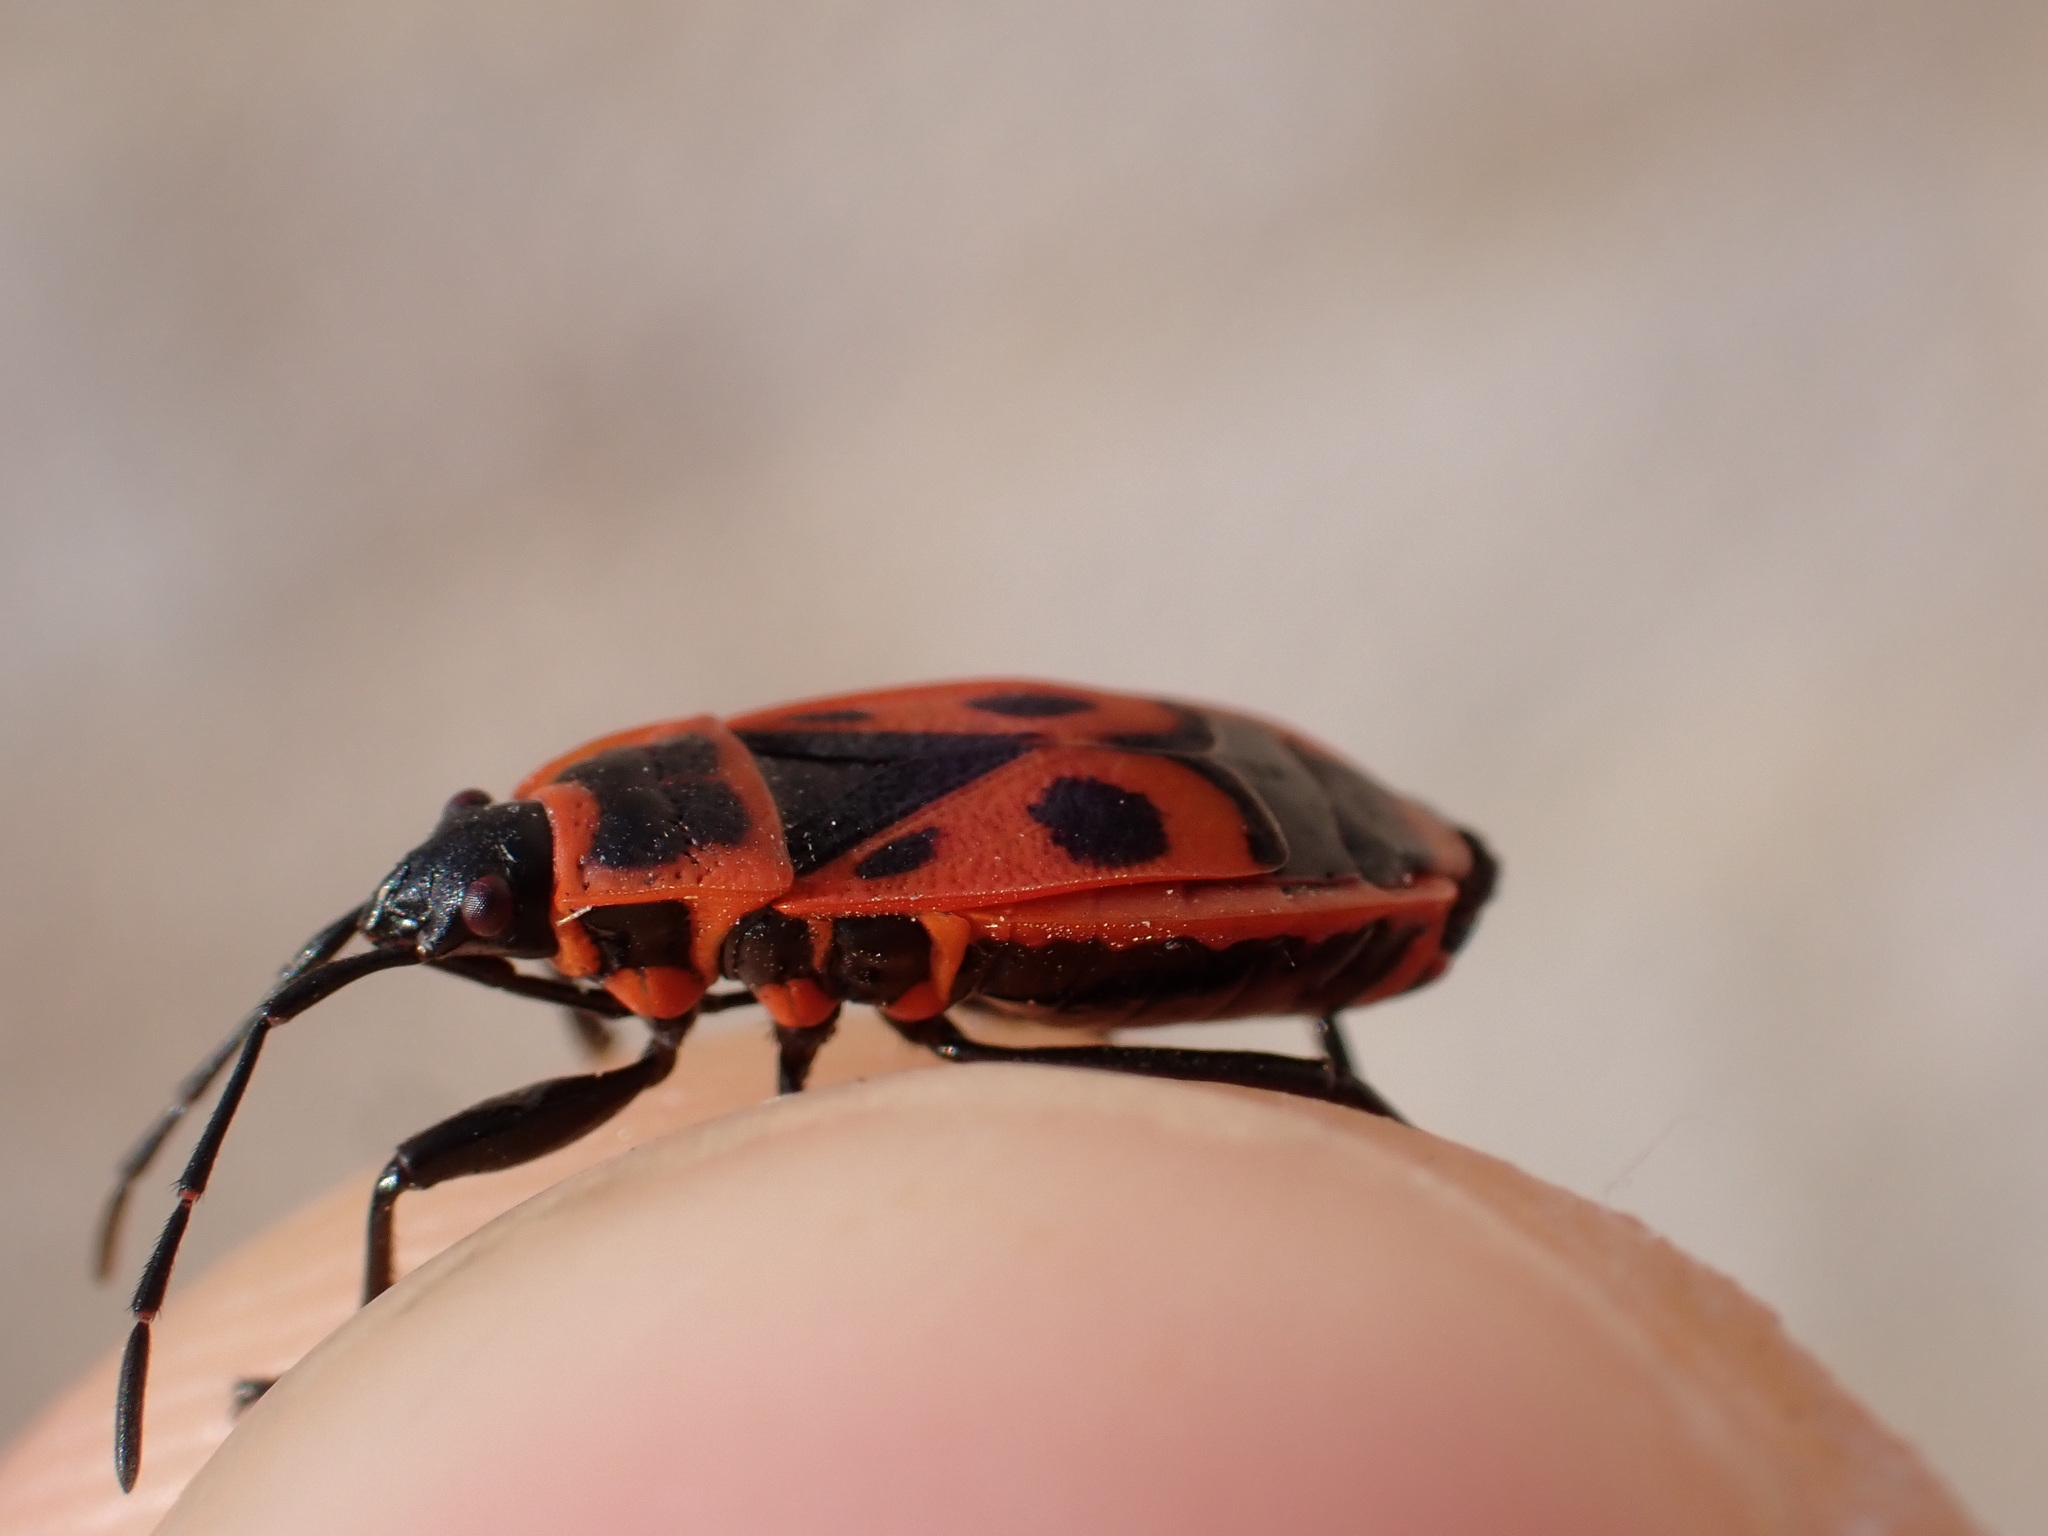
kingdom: Animalia
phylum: Arthropoda
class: Insecta
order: Hemiptera
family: Pyrrhocoridae
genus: Pyrrhocoris
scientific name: Pyrrhocoris apterus
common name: Firebug
